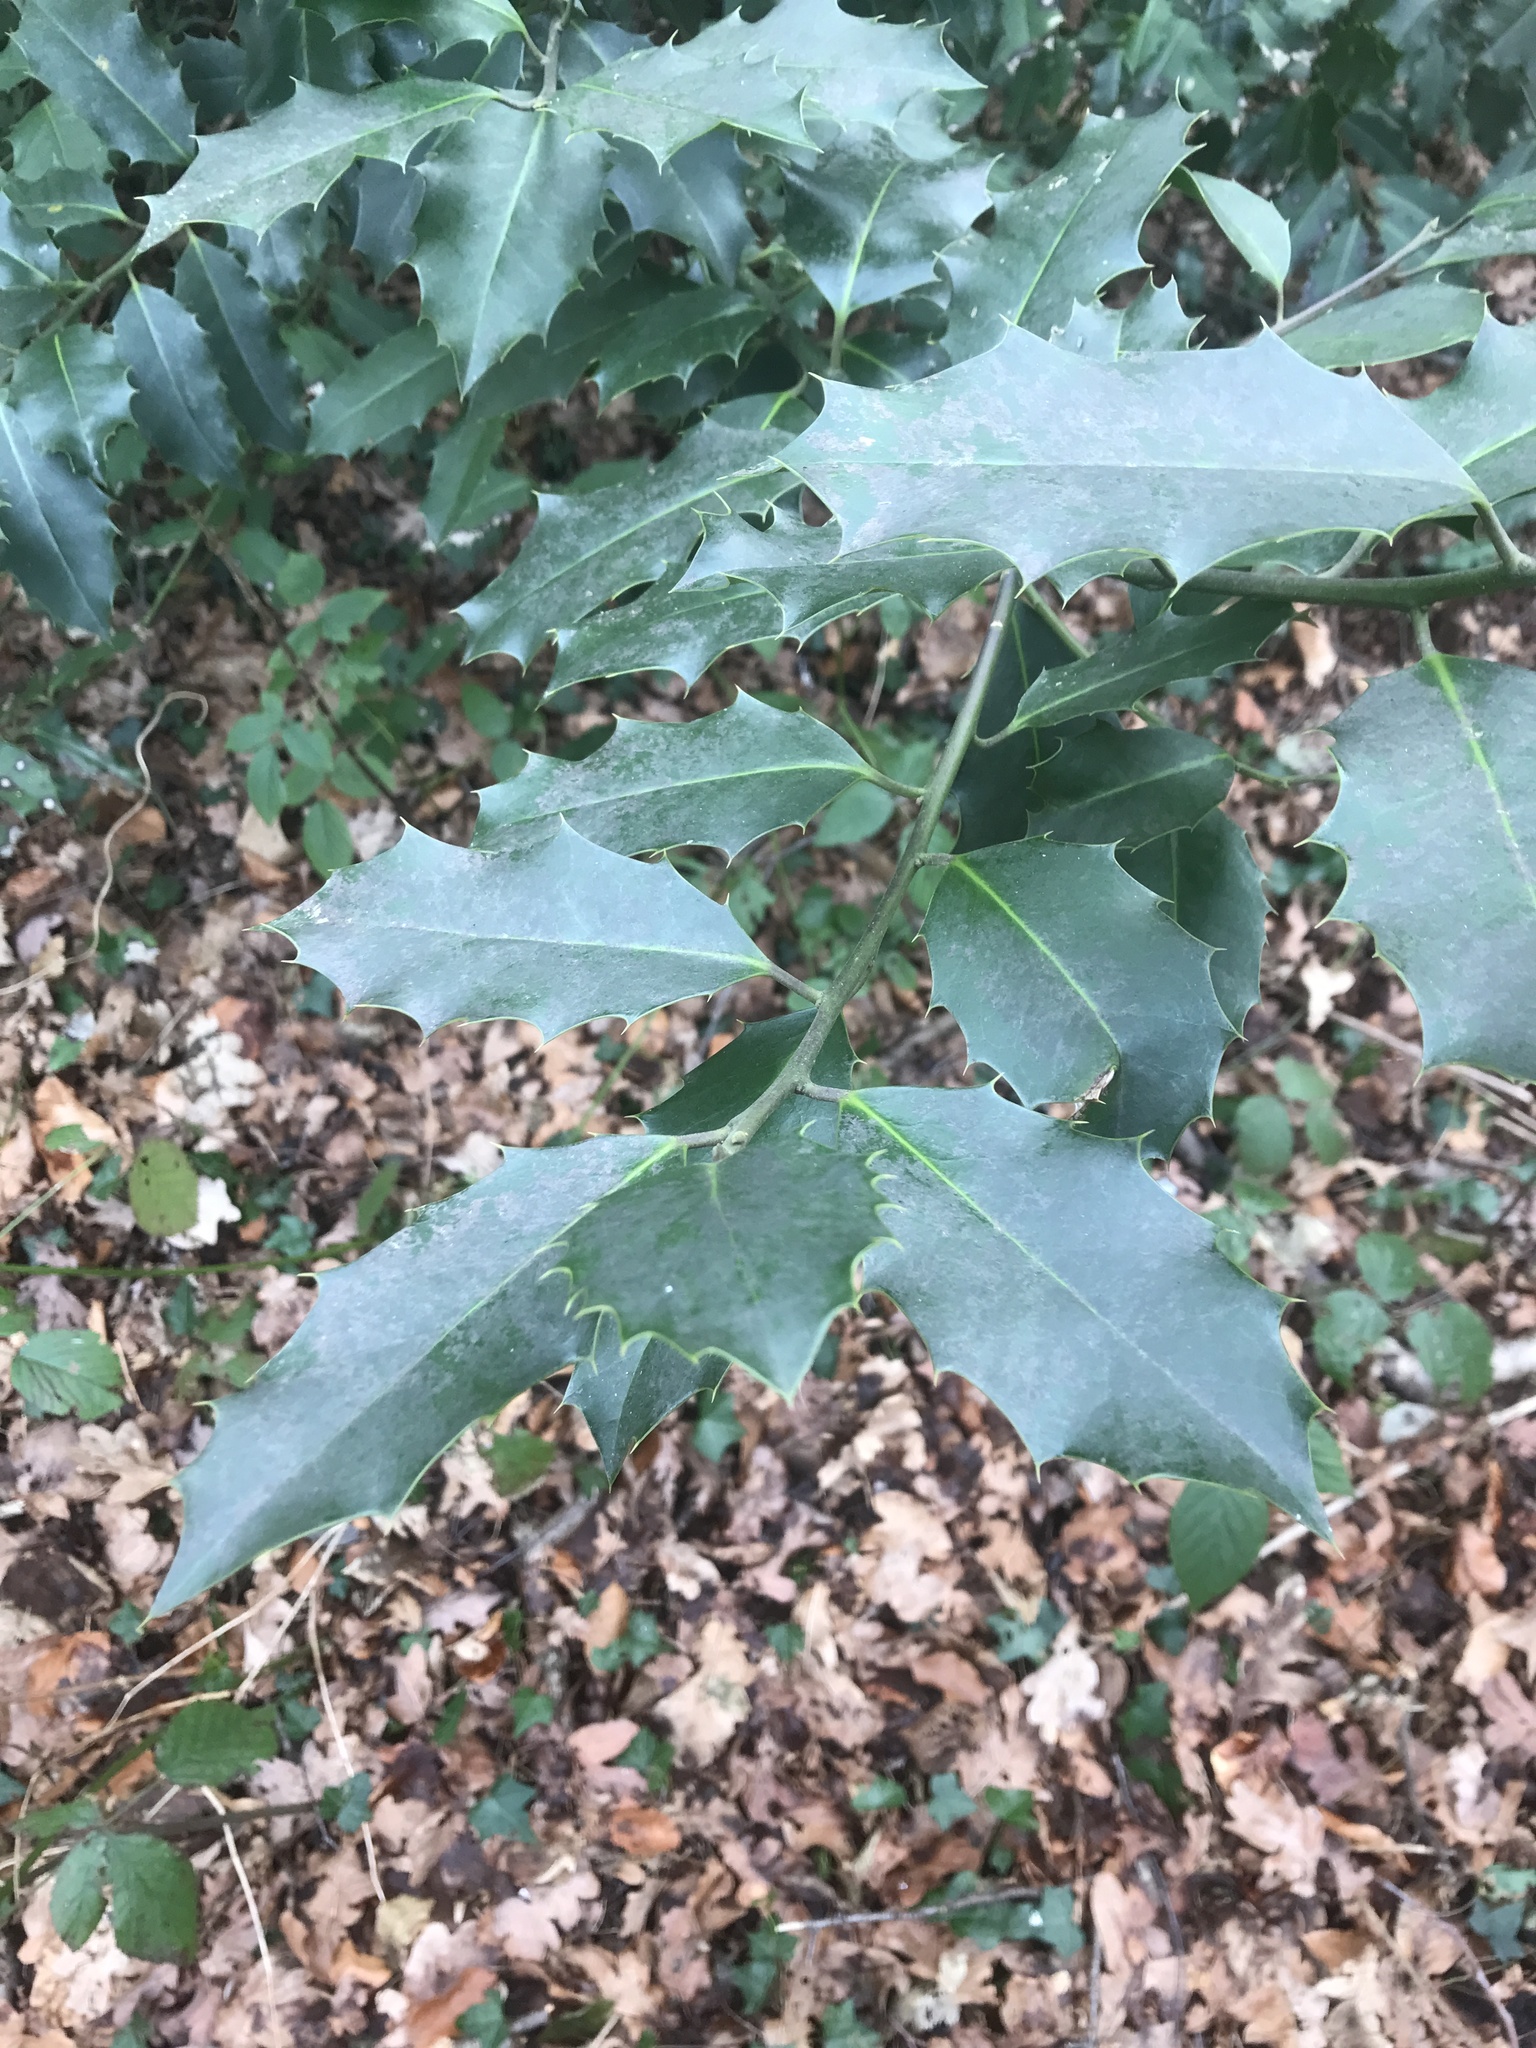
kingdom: Plantae
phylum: Tracheophyta
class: Magnoliopsida
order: Aquifoliales
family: Aquifoliaceae
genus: Ilex
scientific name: Ilex aquifolium
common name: English holly
